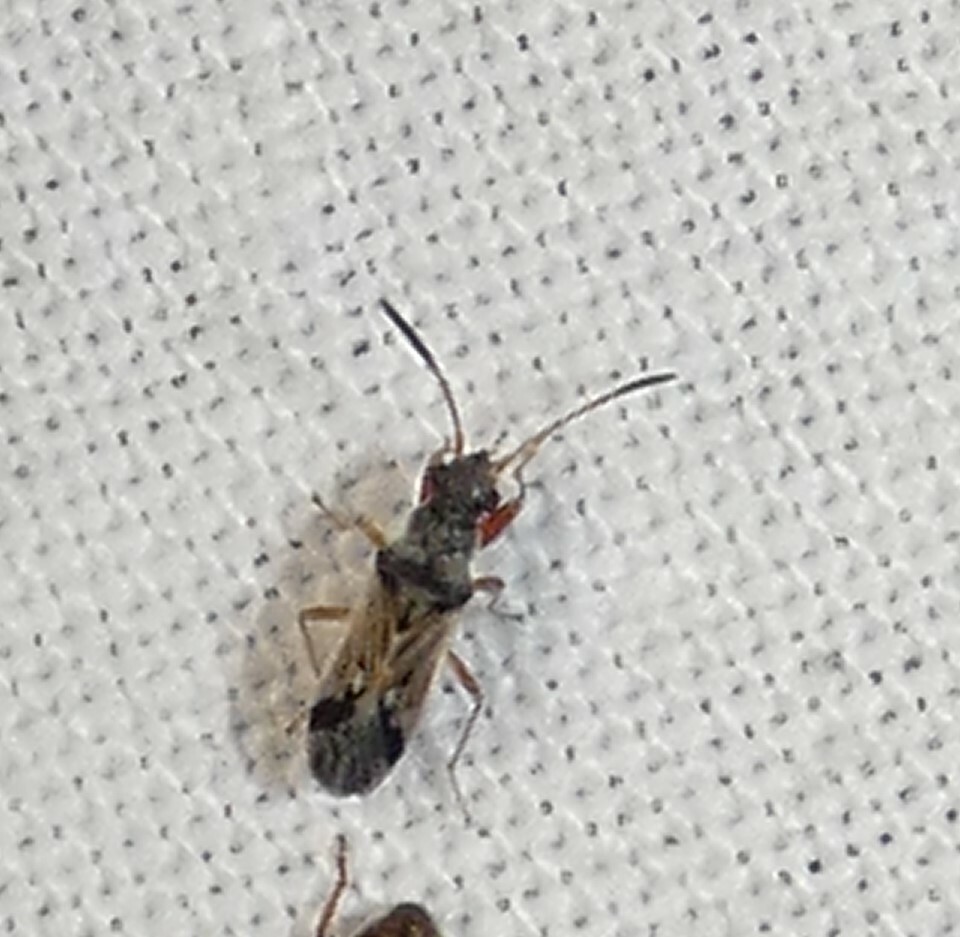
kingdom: Animalia
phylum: Arthropoda
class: Insecta
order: Hemiptera
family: Rhyparochromidae
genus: Pseudopachybrachius
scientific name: Pseudopachybrachius vinctus
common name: Dirt-colored seed bug
